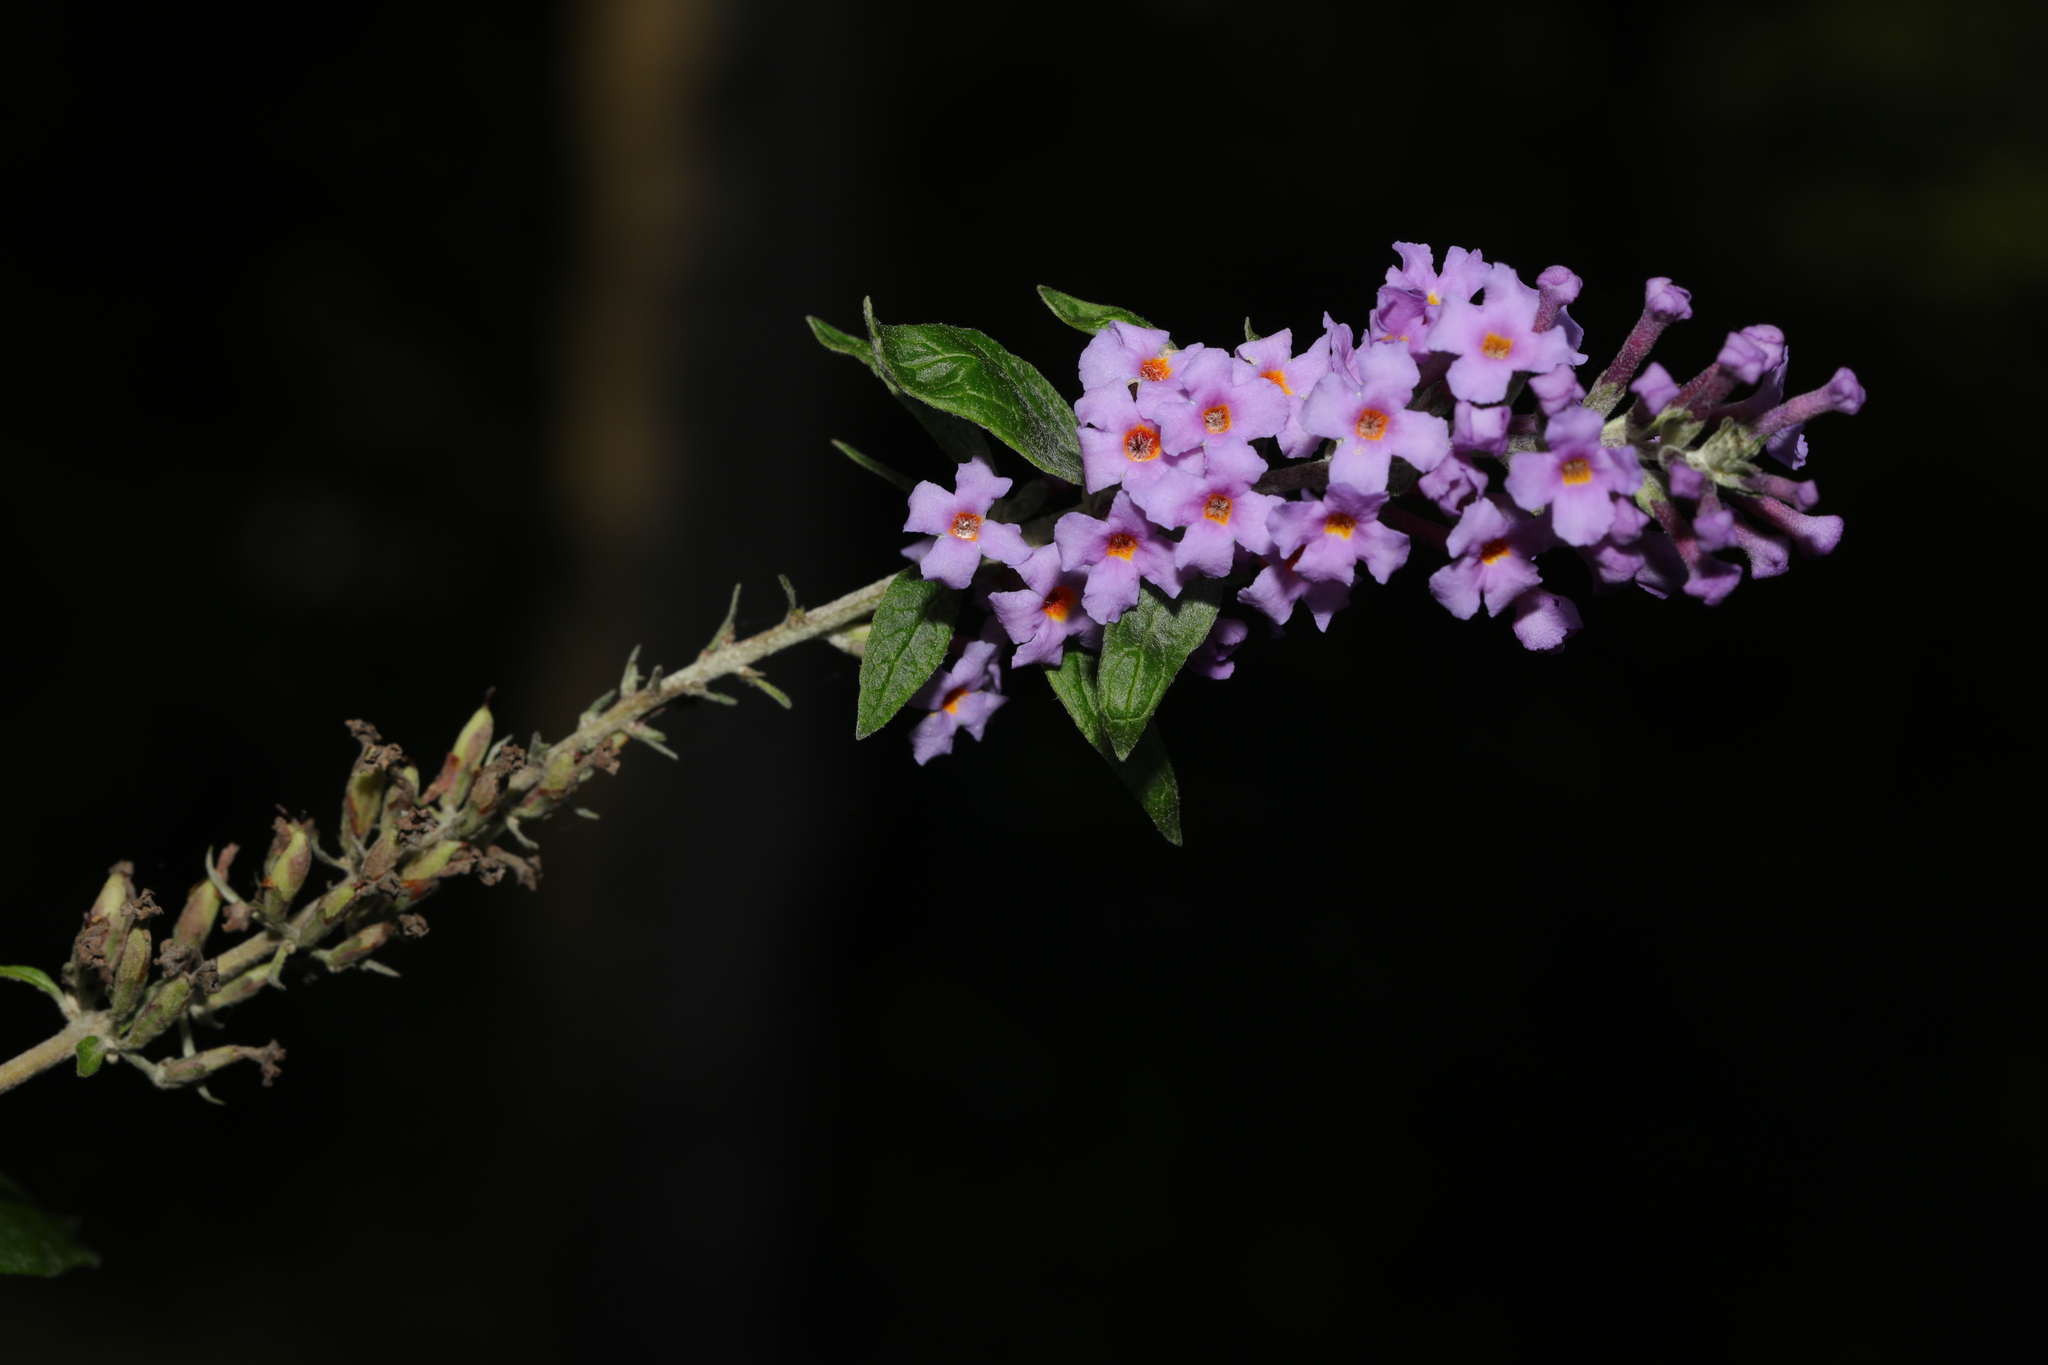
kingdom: Plantae
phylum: Tracheophyta
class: Magnoliopsida
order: Lamiales
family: Scrophulariaceae
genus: Buddleja
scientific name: Buddleja davidii
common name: Butterfly-bush
